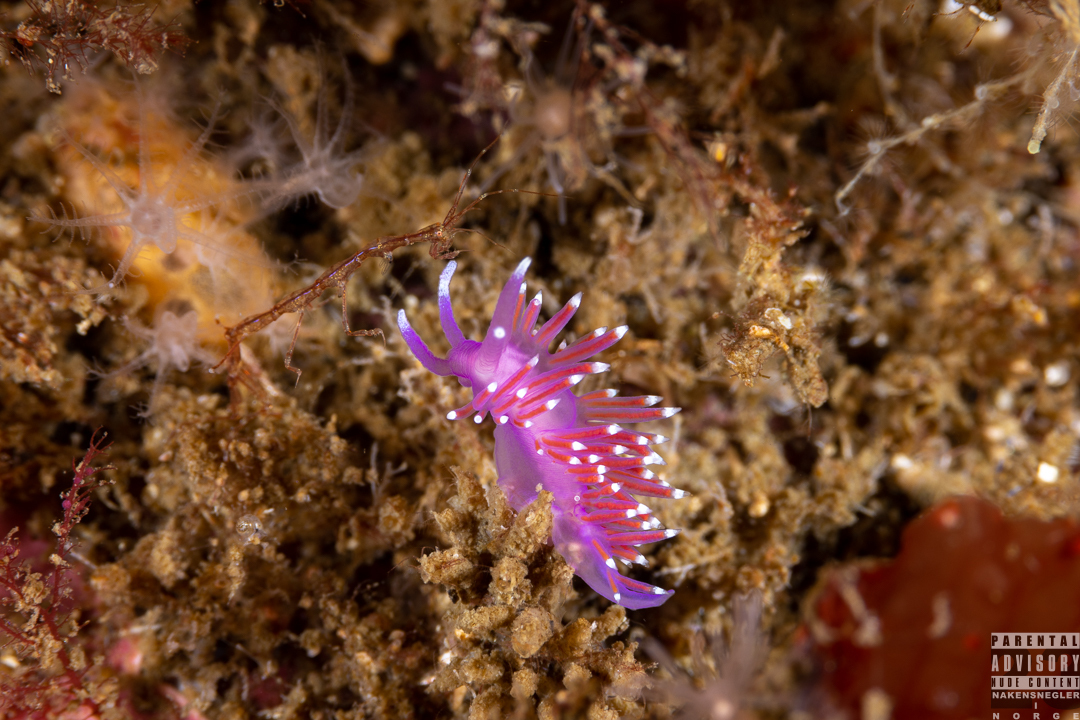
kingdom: Animalia
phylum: Mollusca
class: Gastropoda
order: Nudibranchia
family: Flabellinidae
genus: Edmundsella
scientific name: Edmundsella pedata
